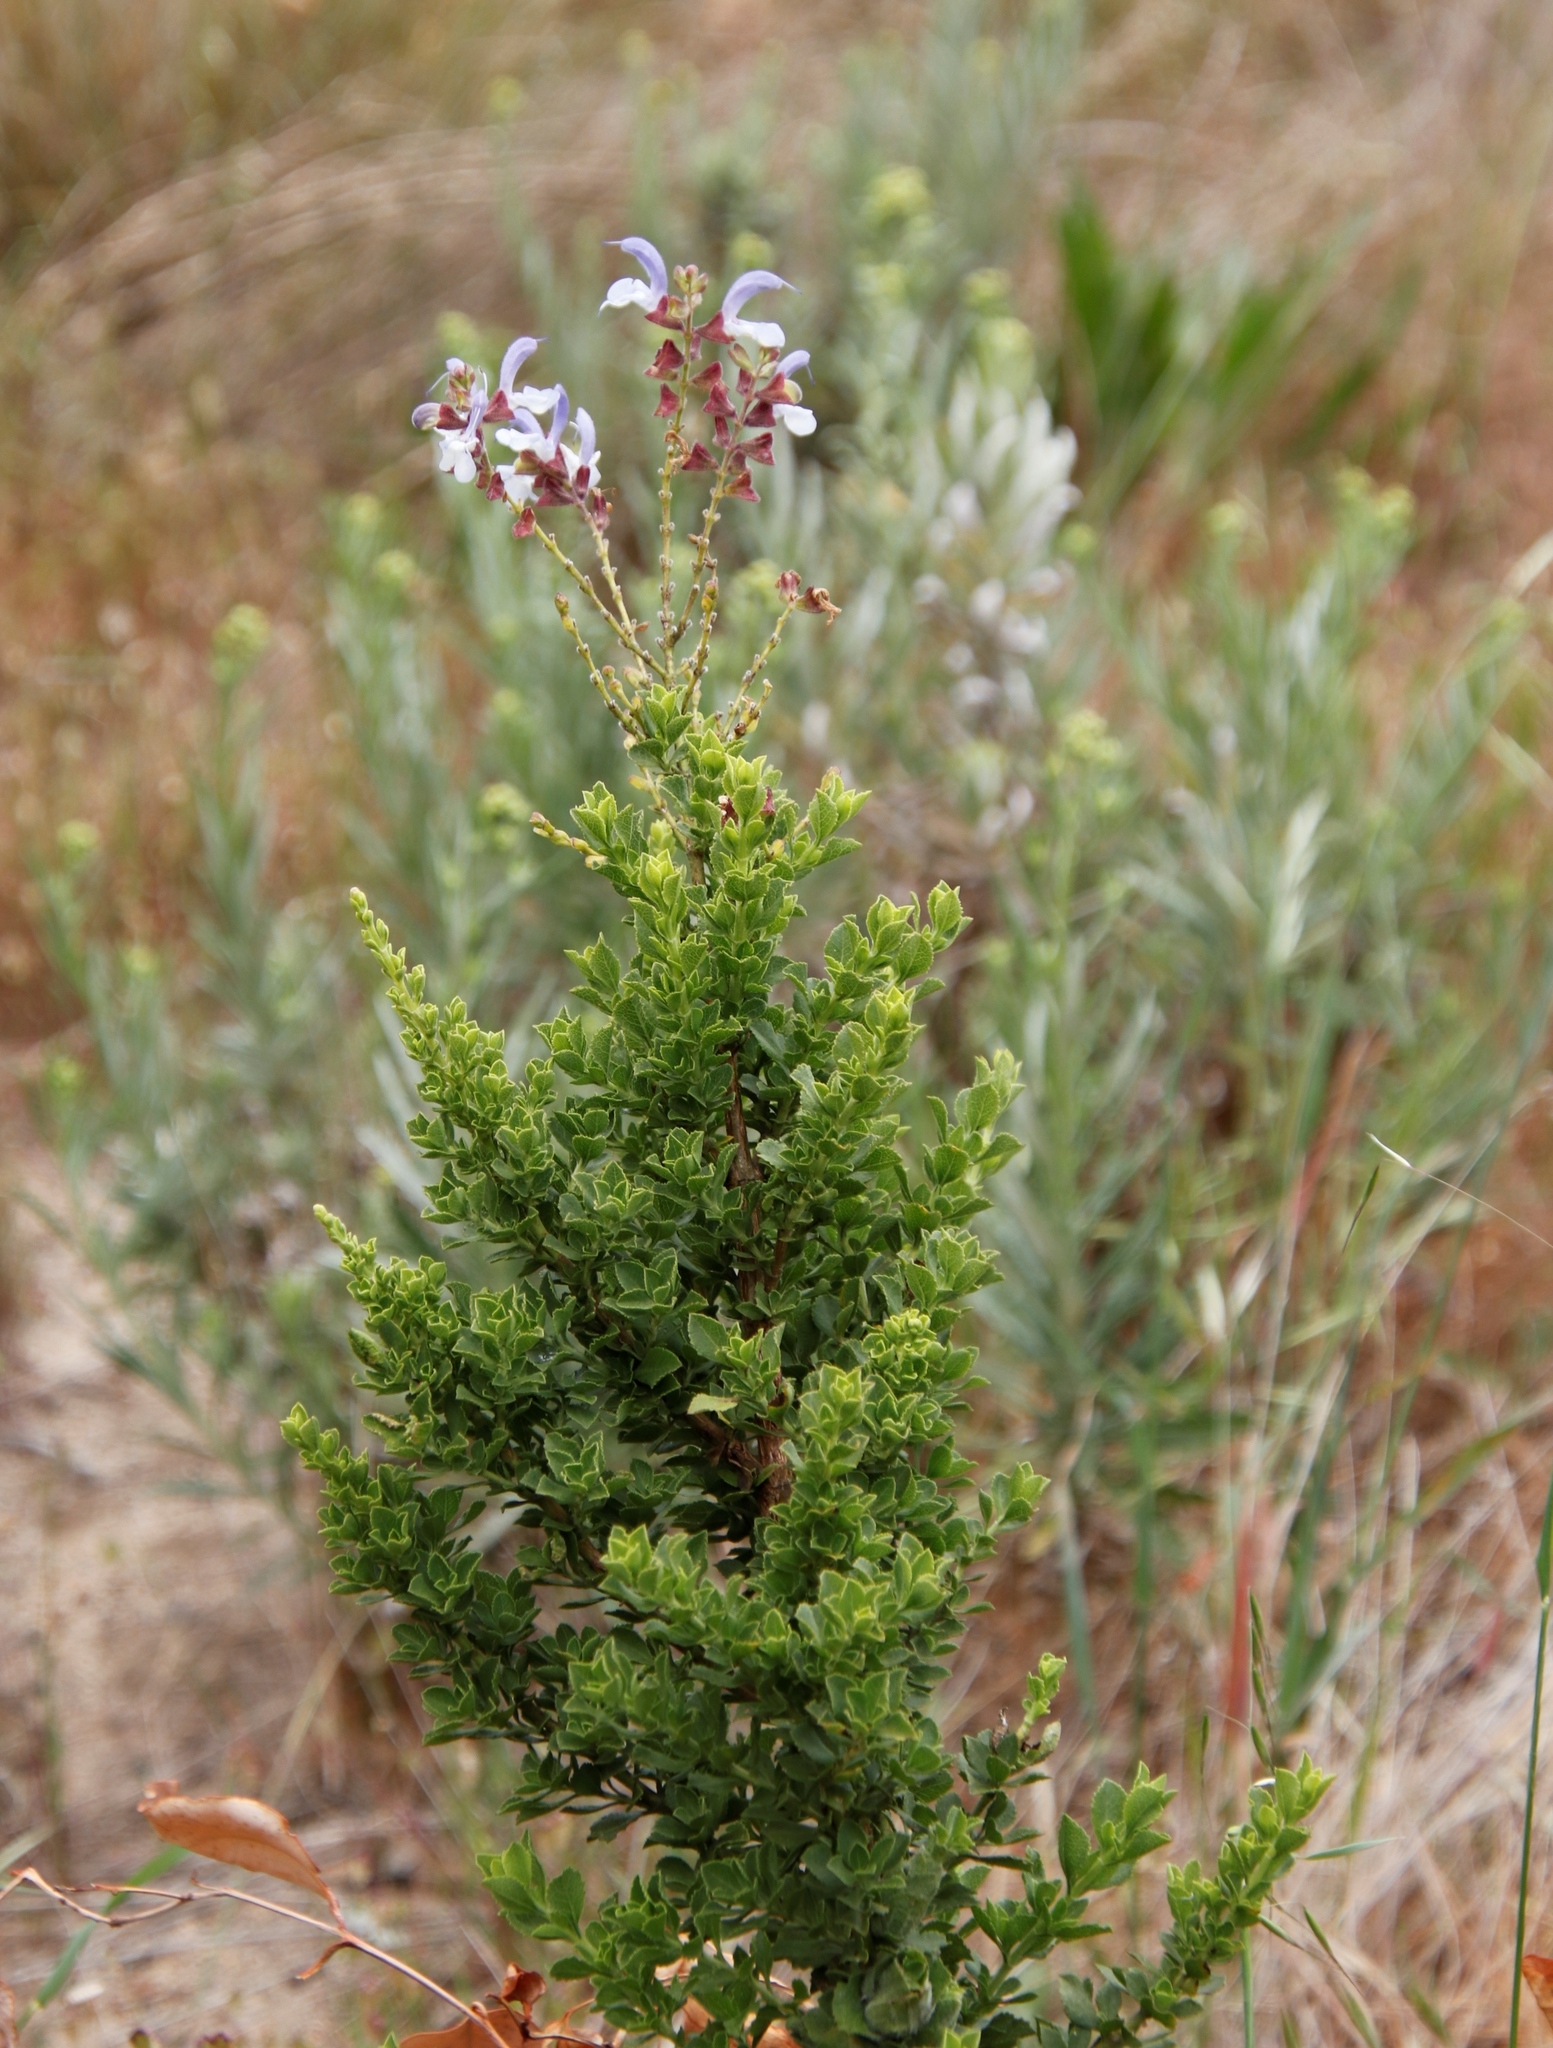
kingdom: Plantae
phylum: Tracheophyta
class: Magnoliopsida
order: Lamiales
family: Lamiaceae
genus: Salvia
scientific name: Salvia chamelaeagnea
